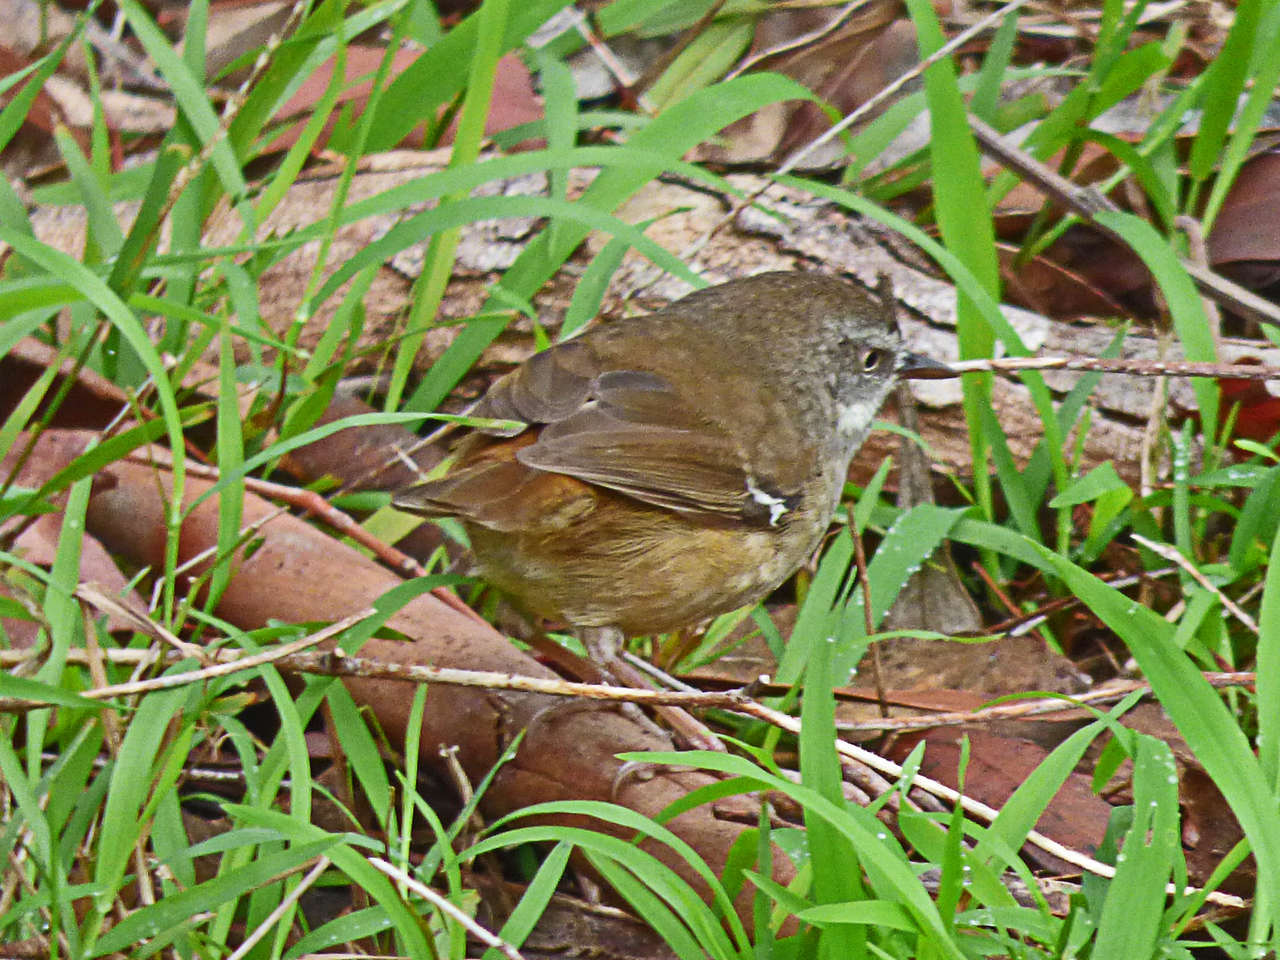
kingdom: Animalia
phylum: Chordata
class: Aves
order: Passeriformes
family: Acanthizidae
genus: Sericornis
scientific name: Sericornis frontalis
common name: White-browed scrubwren
